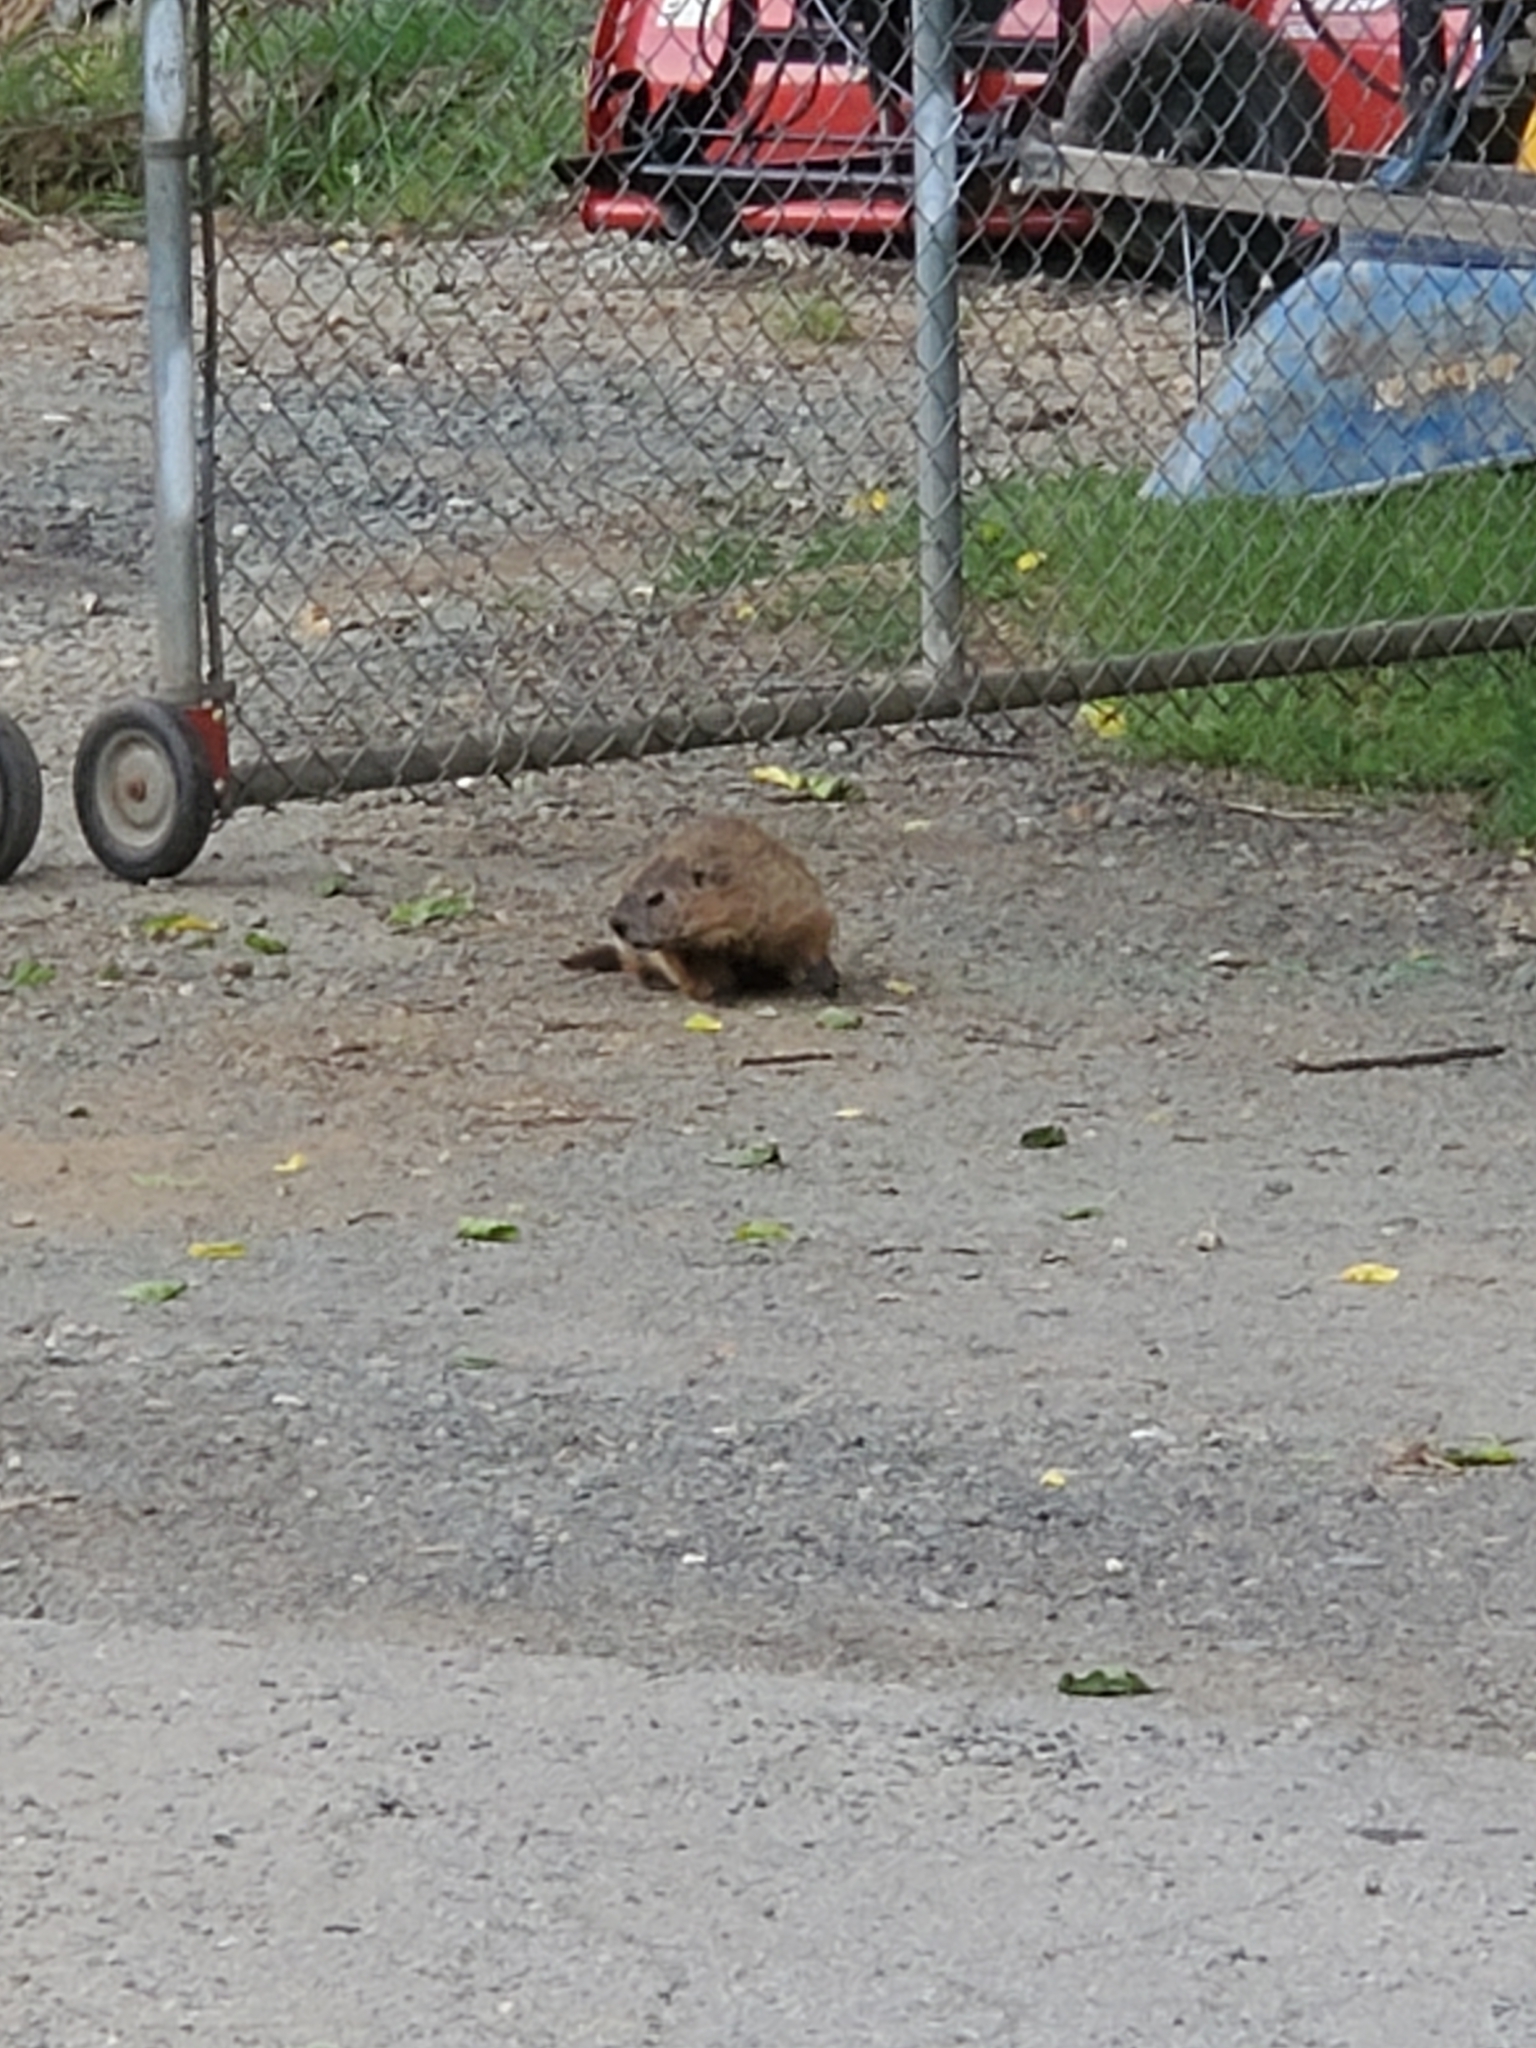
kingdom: Animalia
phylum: Chordata
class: Mammalia
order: Rodentia
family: Sciuridae
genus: Marmota
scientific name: Marmota monax
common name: Groundhog
